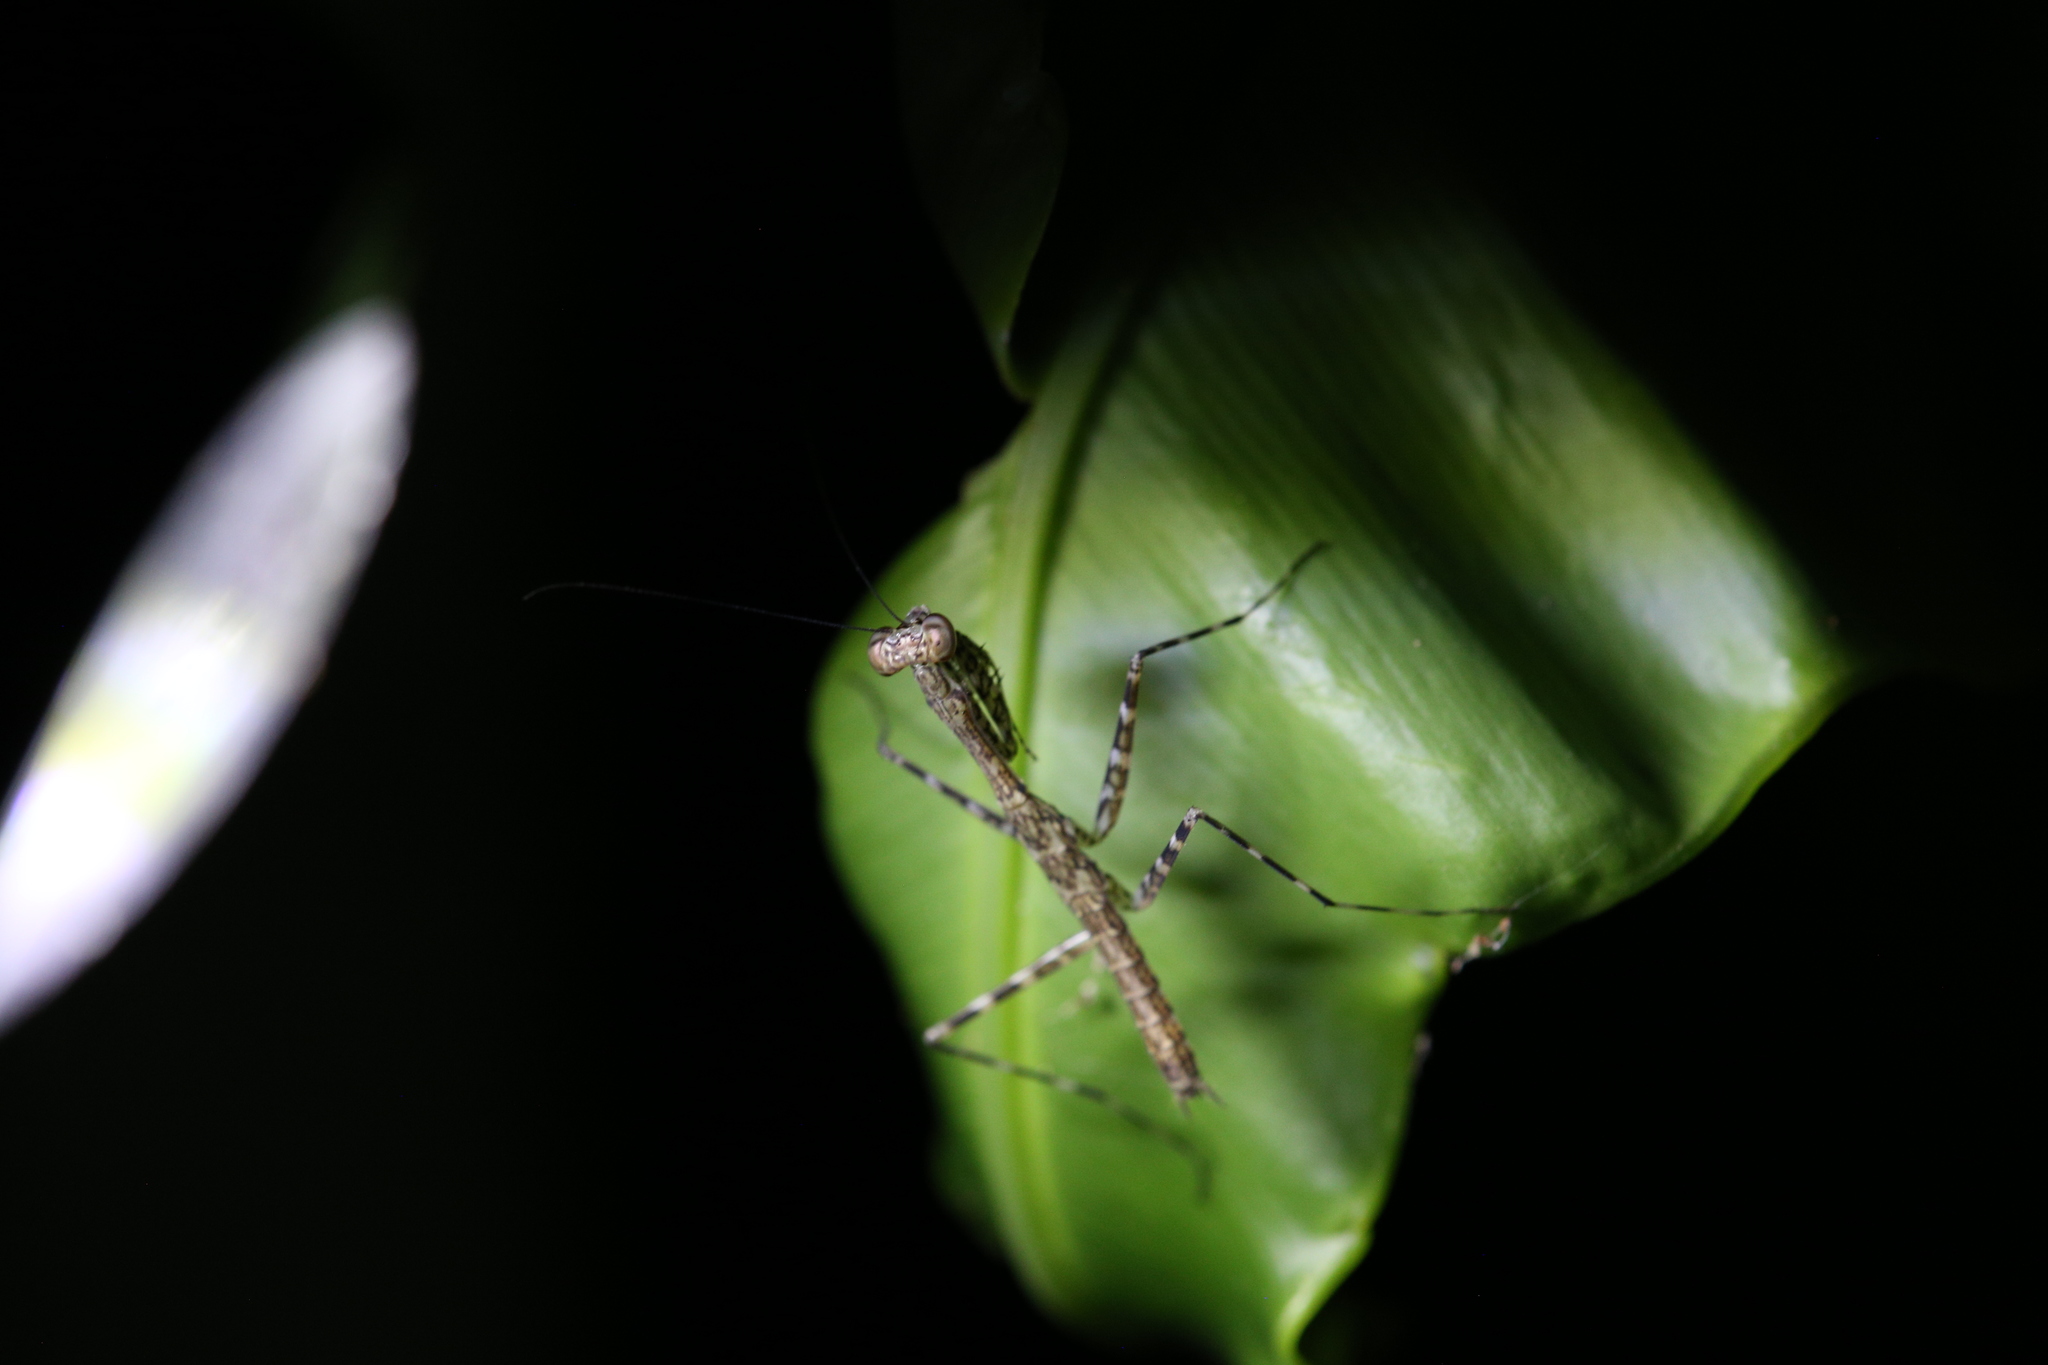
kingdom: Animalia
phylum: Arthropoda
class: Insecta
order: Mantodea
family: Nanomantidae
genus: Ciulfina
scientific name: Ciulfina rentzi
